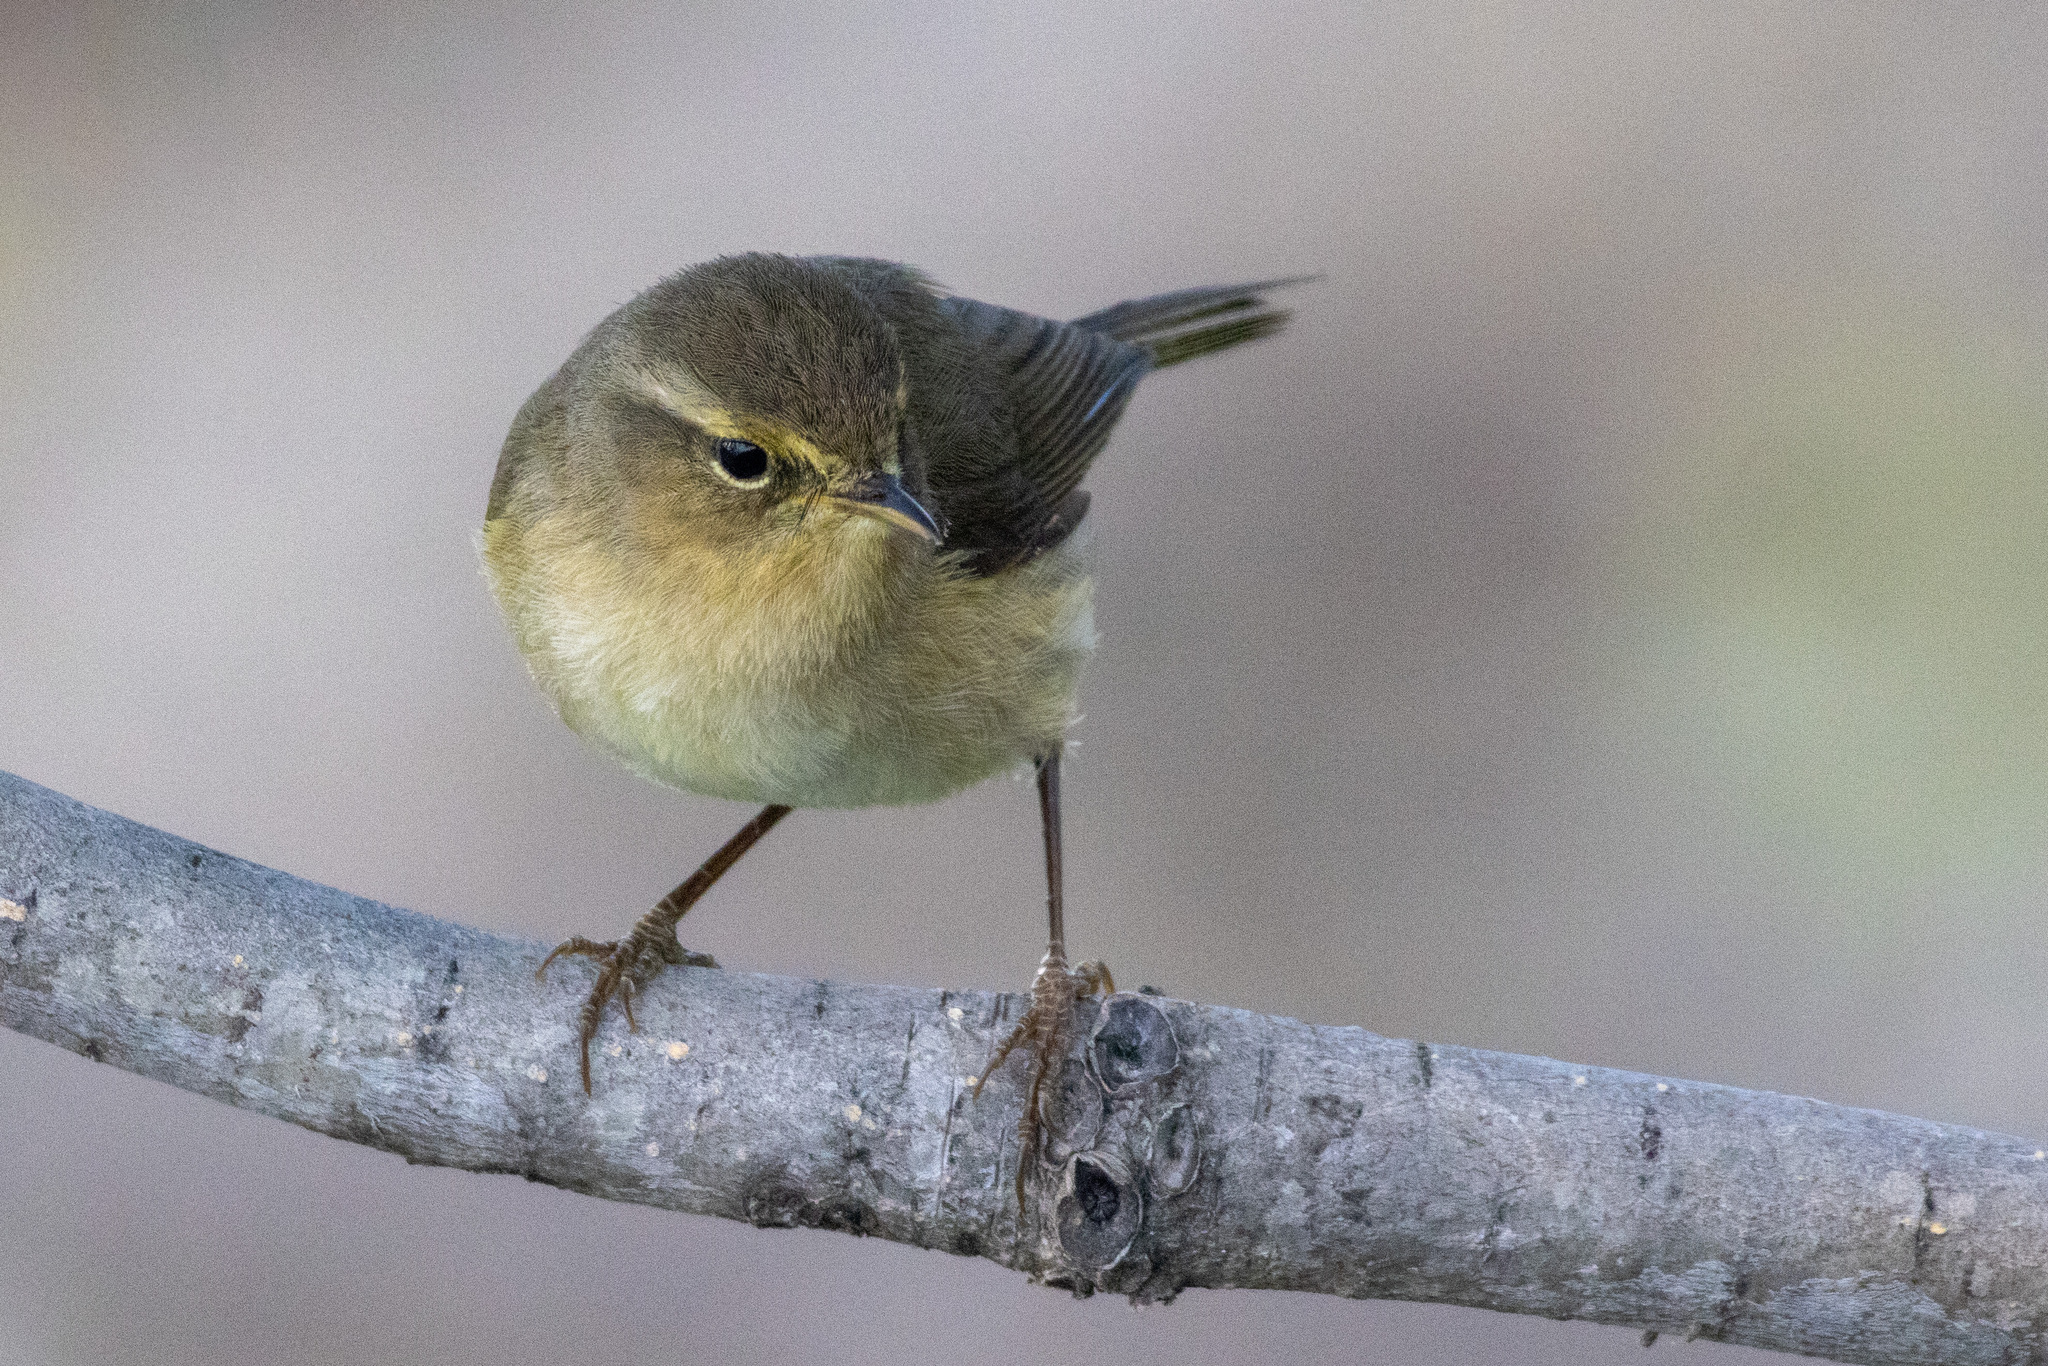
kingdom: Animalia
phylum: Chordata
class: Aves
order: Passeriformes
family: Phylloscopidae
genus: Phylloscopus
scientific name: Phylloscopus canariensis
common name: Canary islands chiffchaff
